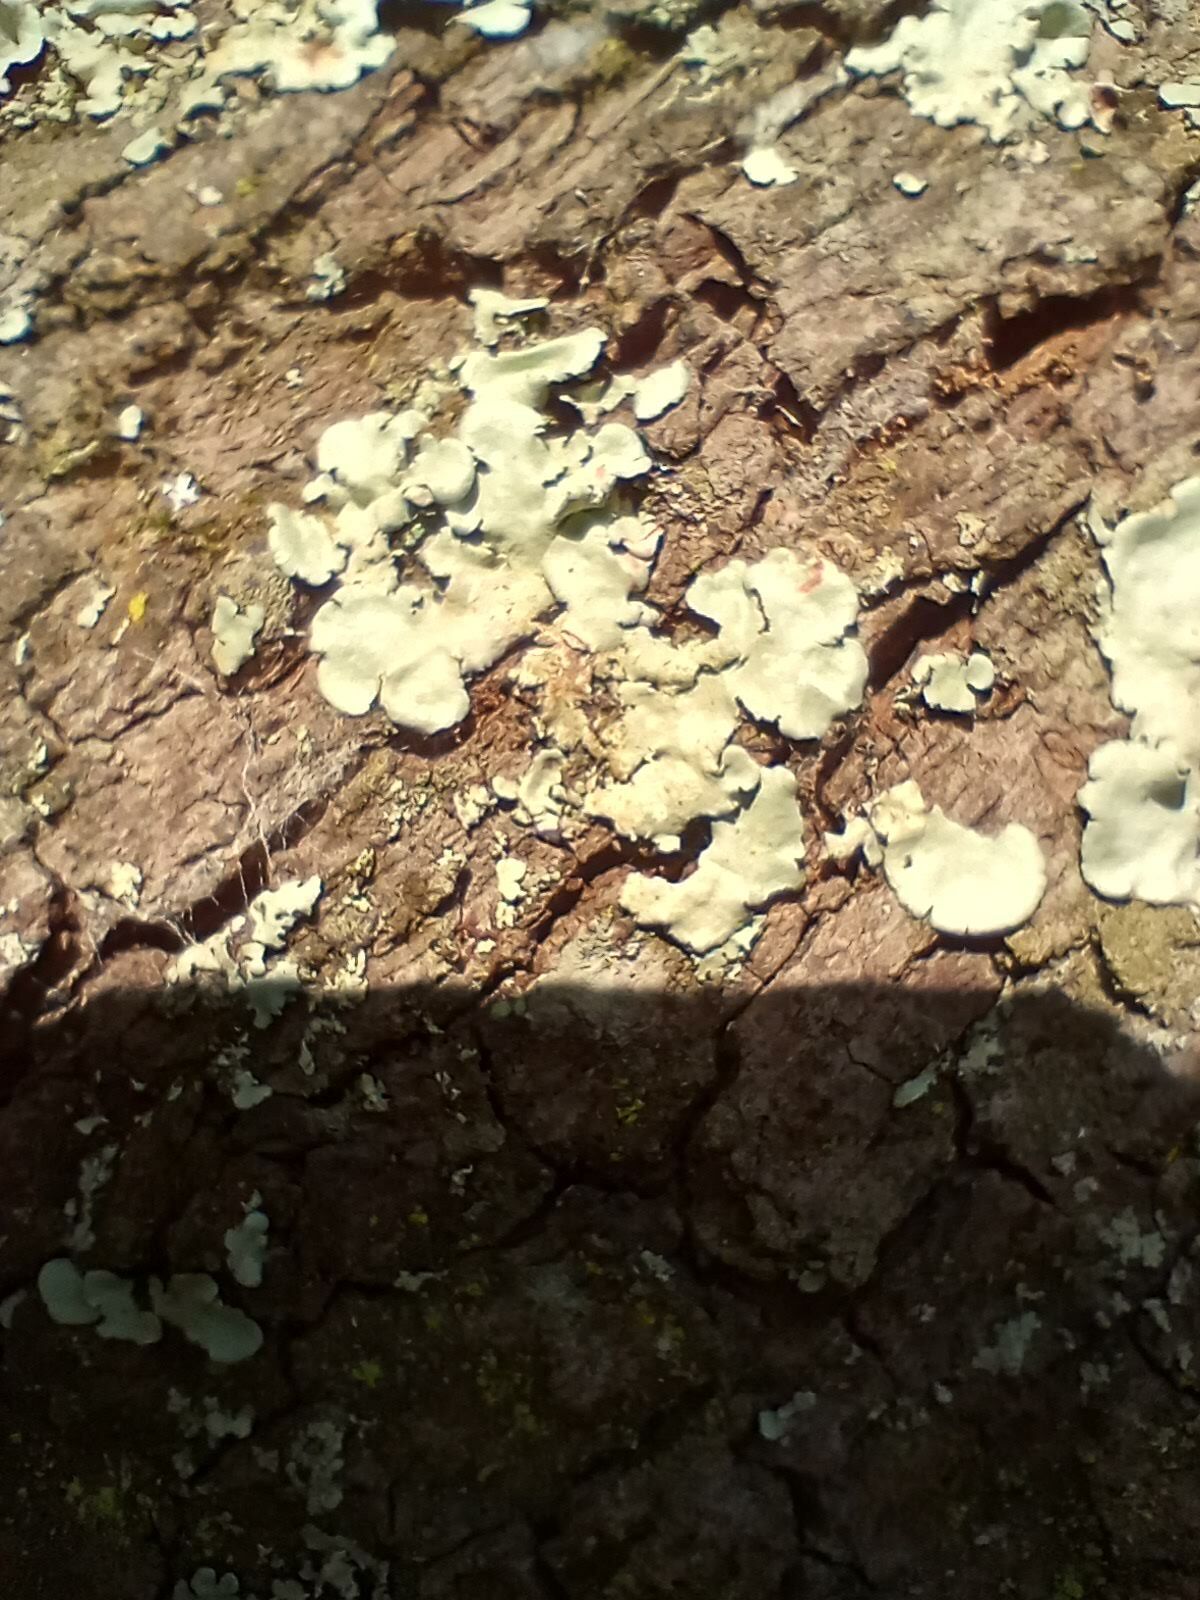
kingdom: Fungi
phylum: Ascomycota
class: Lecanoromycetes
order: Lecanorales
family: Parmeliaceae
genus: Parmotrema
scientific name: Parmotrema tinctorum
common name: Old gray ruffles
